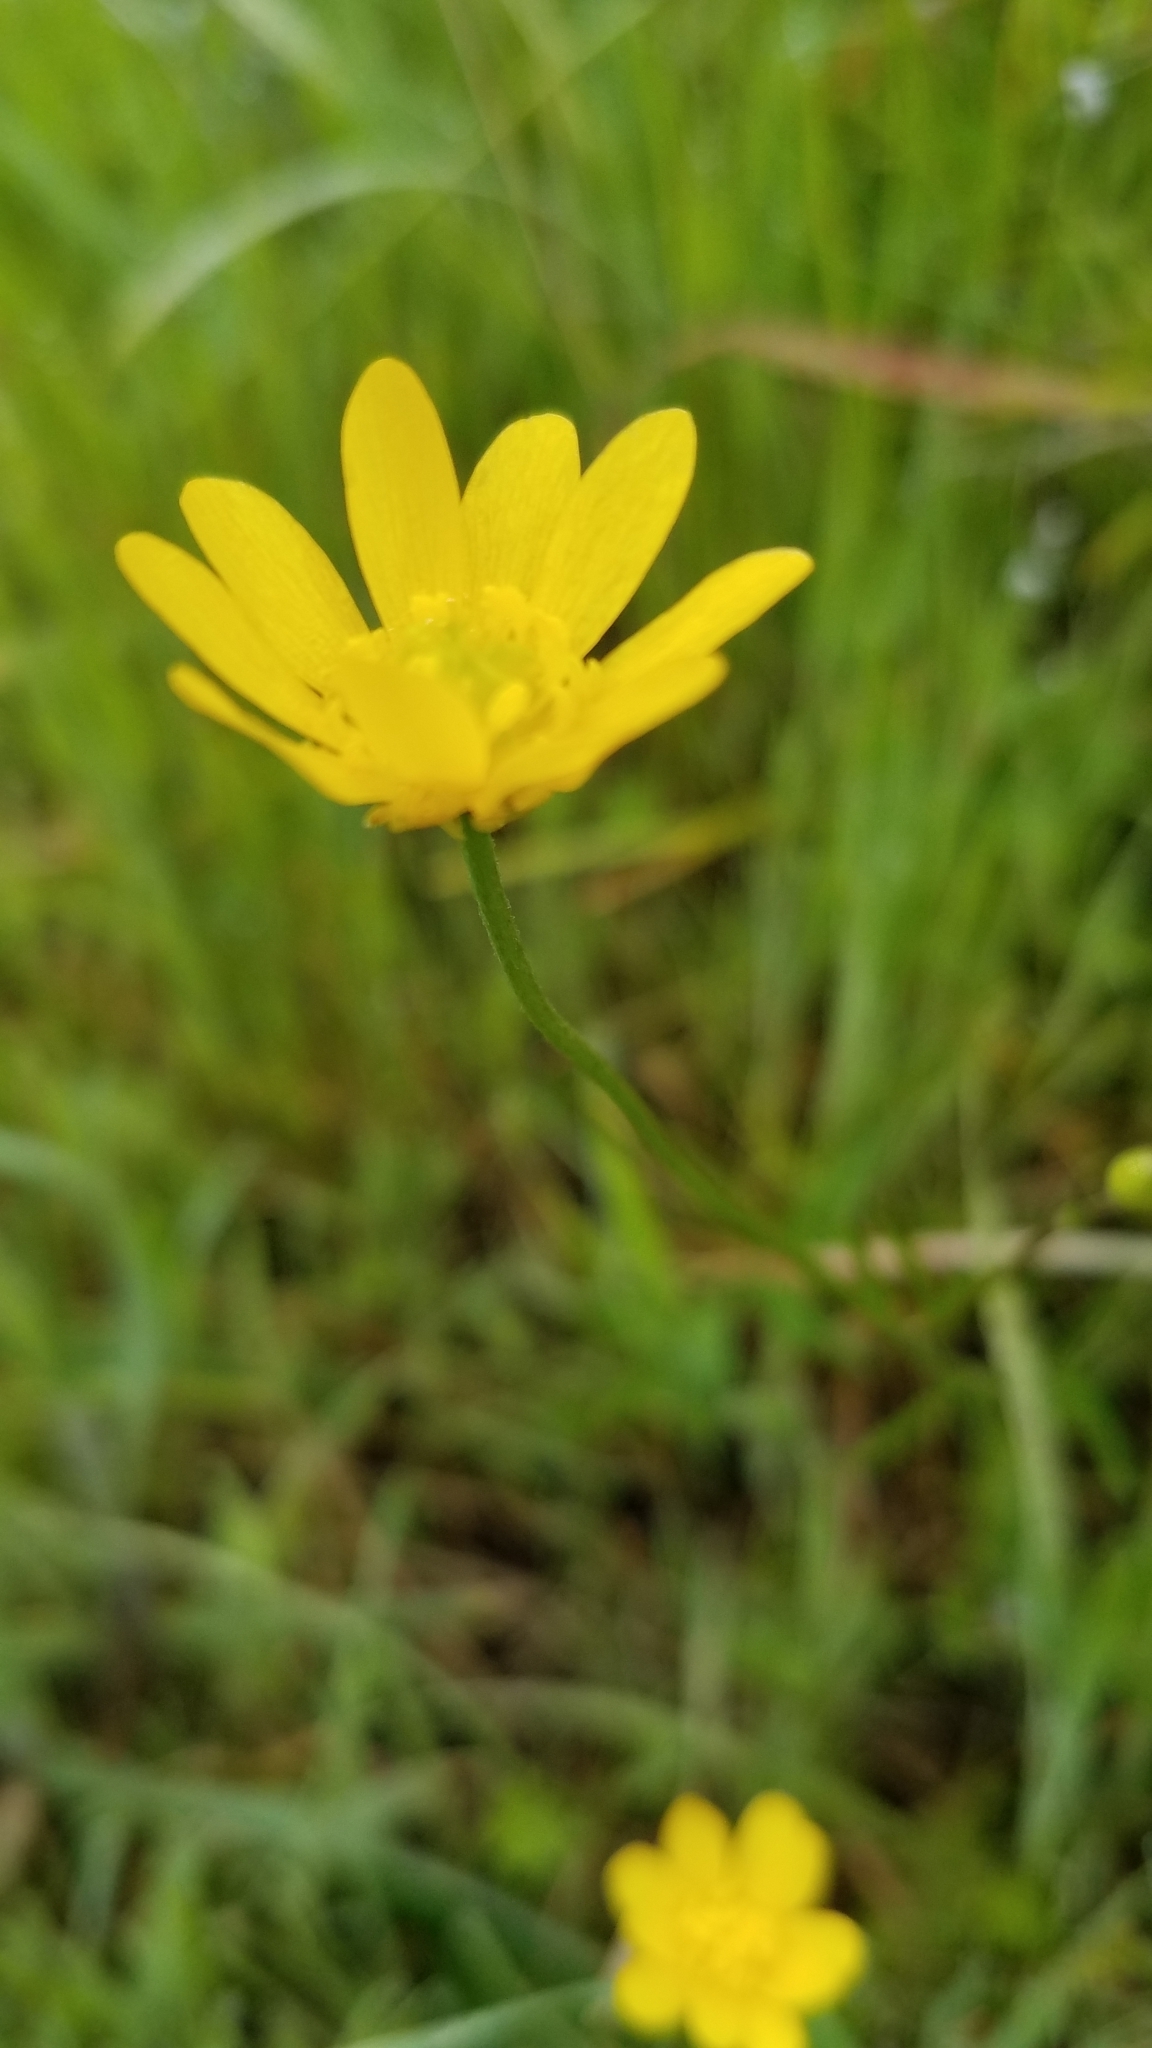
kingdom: Plantae
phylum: Tracheophyta
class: Magnoliopsida
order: Ranunculales
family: Ranunculaceae
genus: Ranunculus
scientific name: Ranunculus californicus
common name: California buttercup
